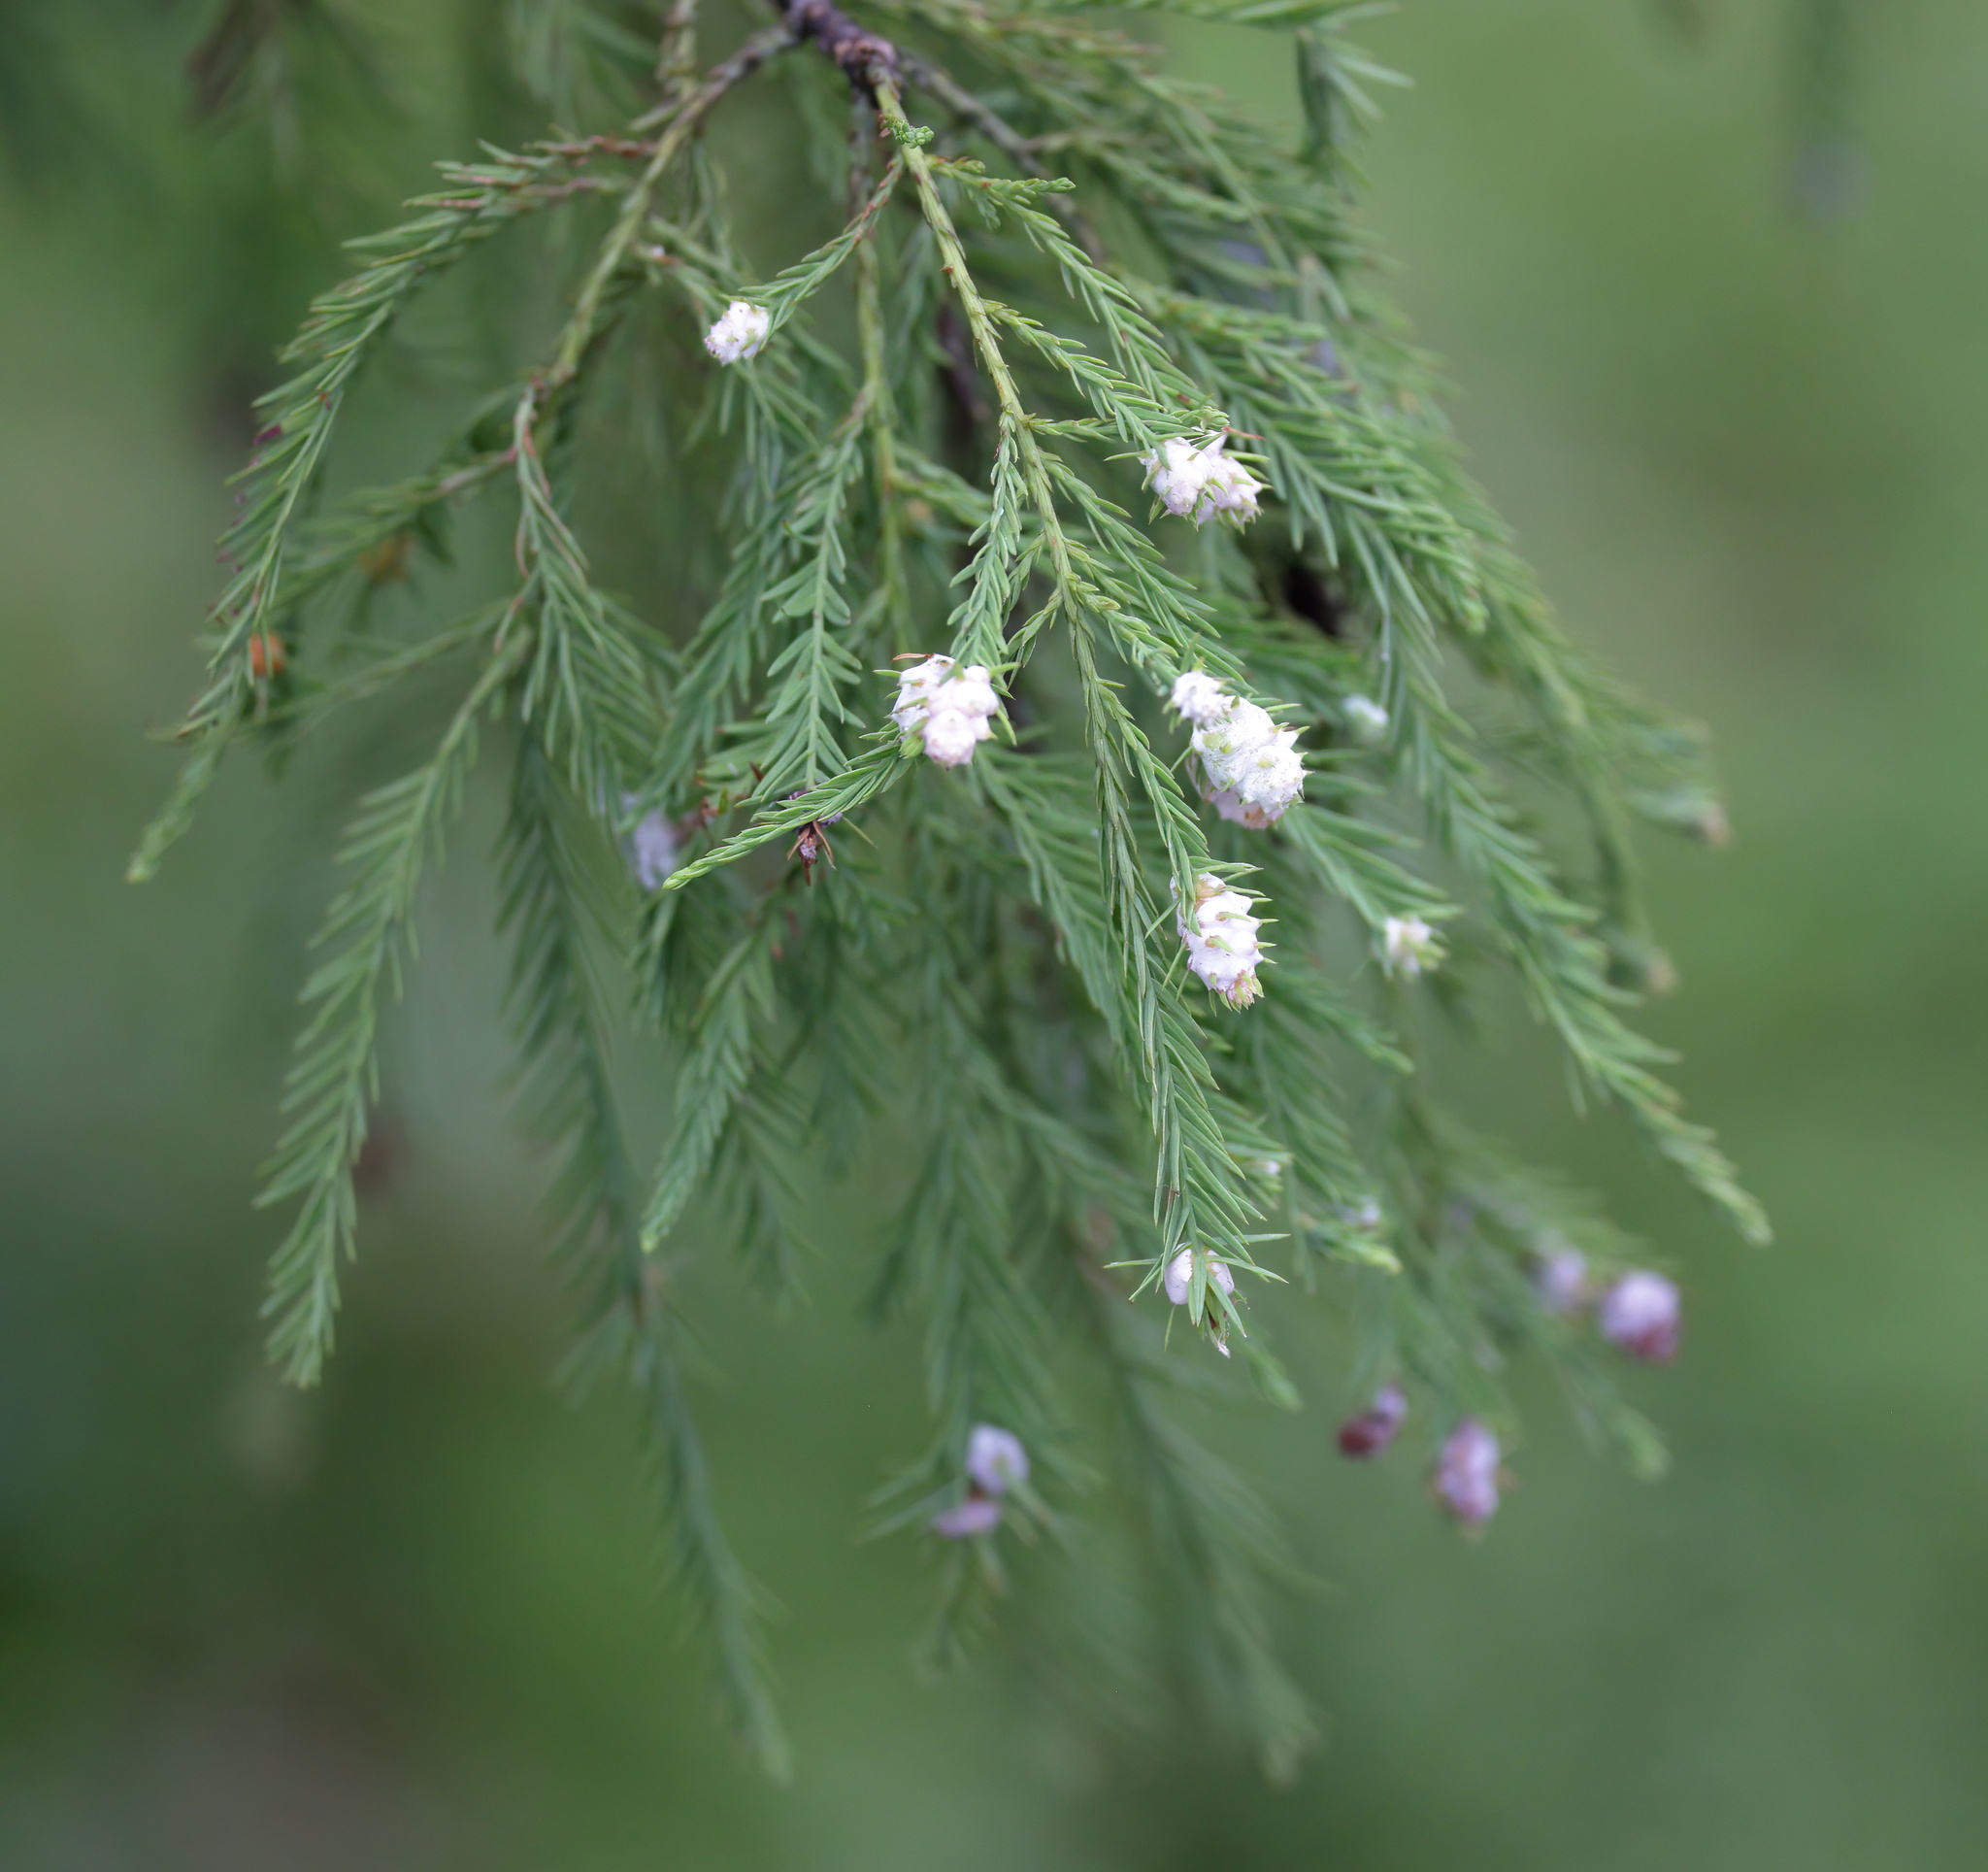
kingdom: Animalia
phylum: Arthropoda
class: Insecta
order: Diptera
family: Cecidomyiidae
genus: Taxodiomyia
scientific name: Taxodiomyia cupressiananassa
